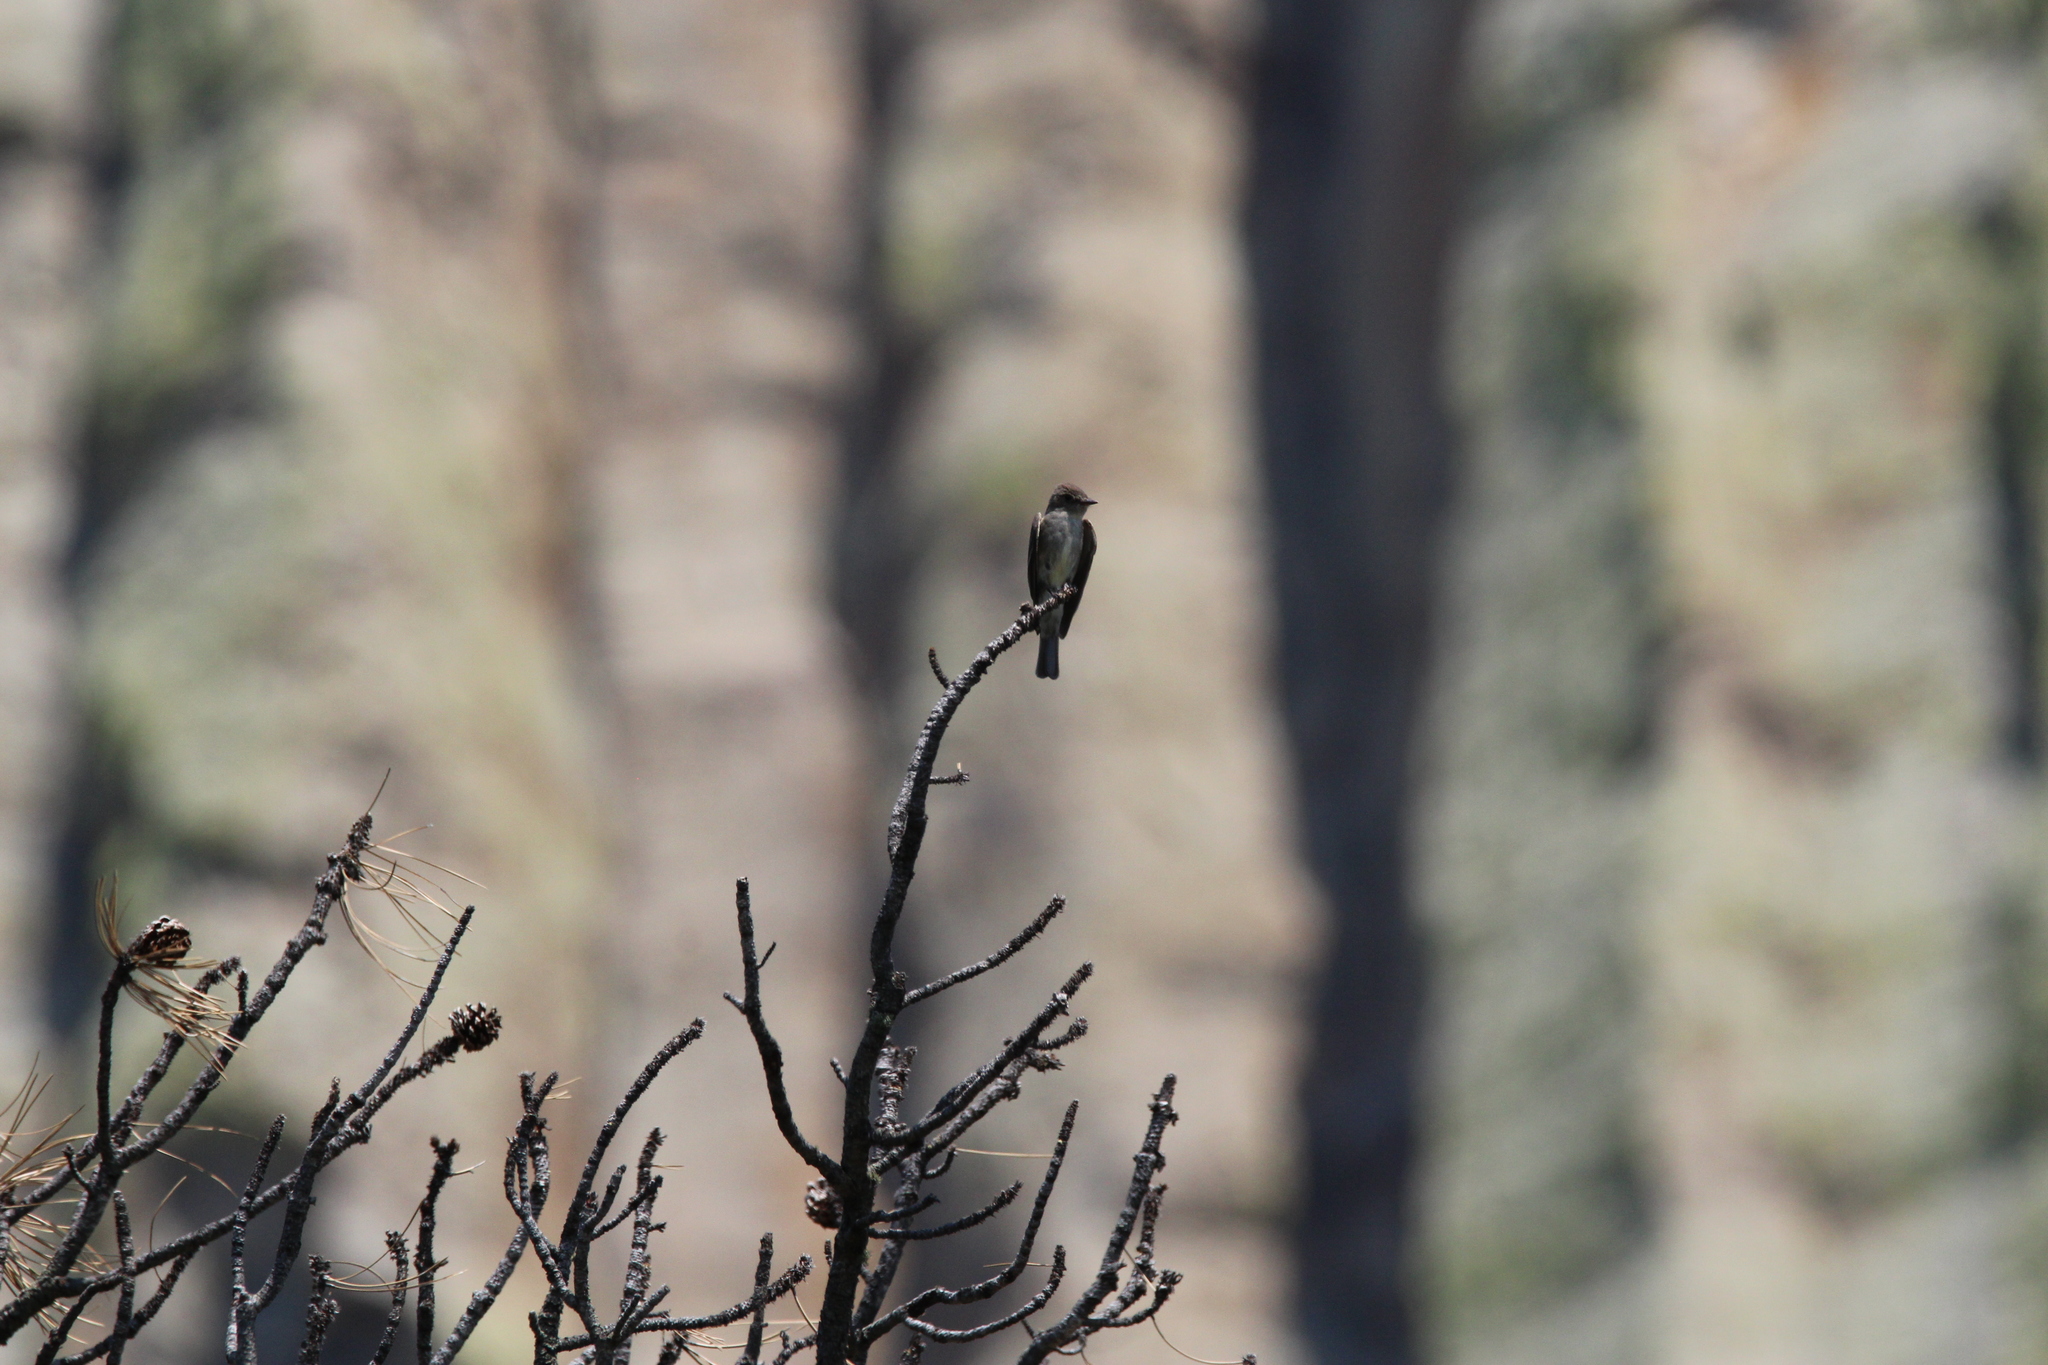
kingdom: Animalia
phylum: Chordata
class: Aves
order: Passeriformes
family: Tyrannidae
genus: Contopus
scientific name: Contopus sordidulus
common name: Western wood-pewee
